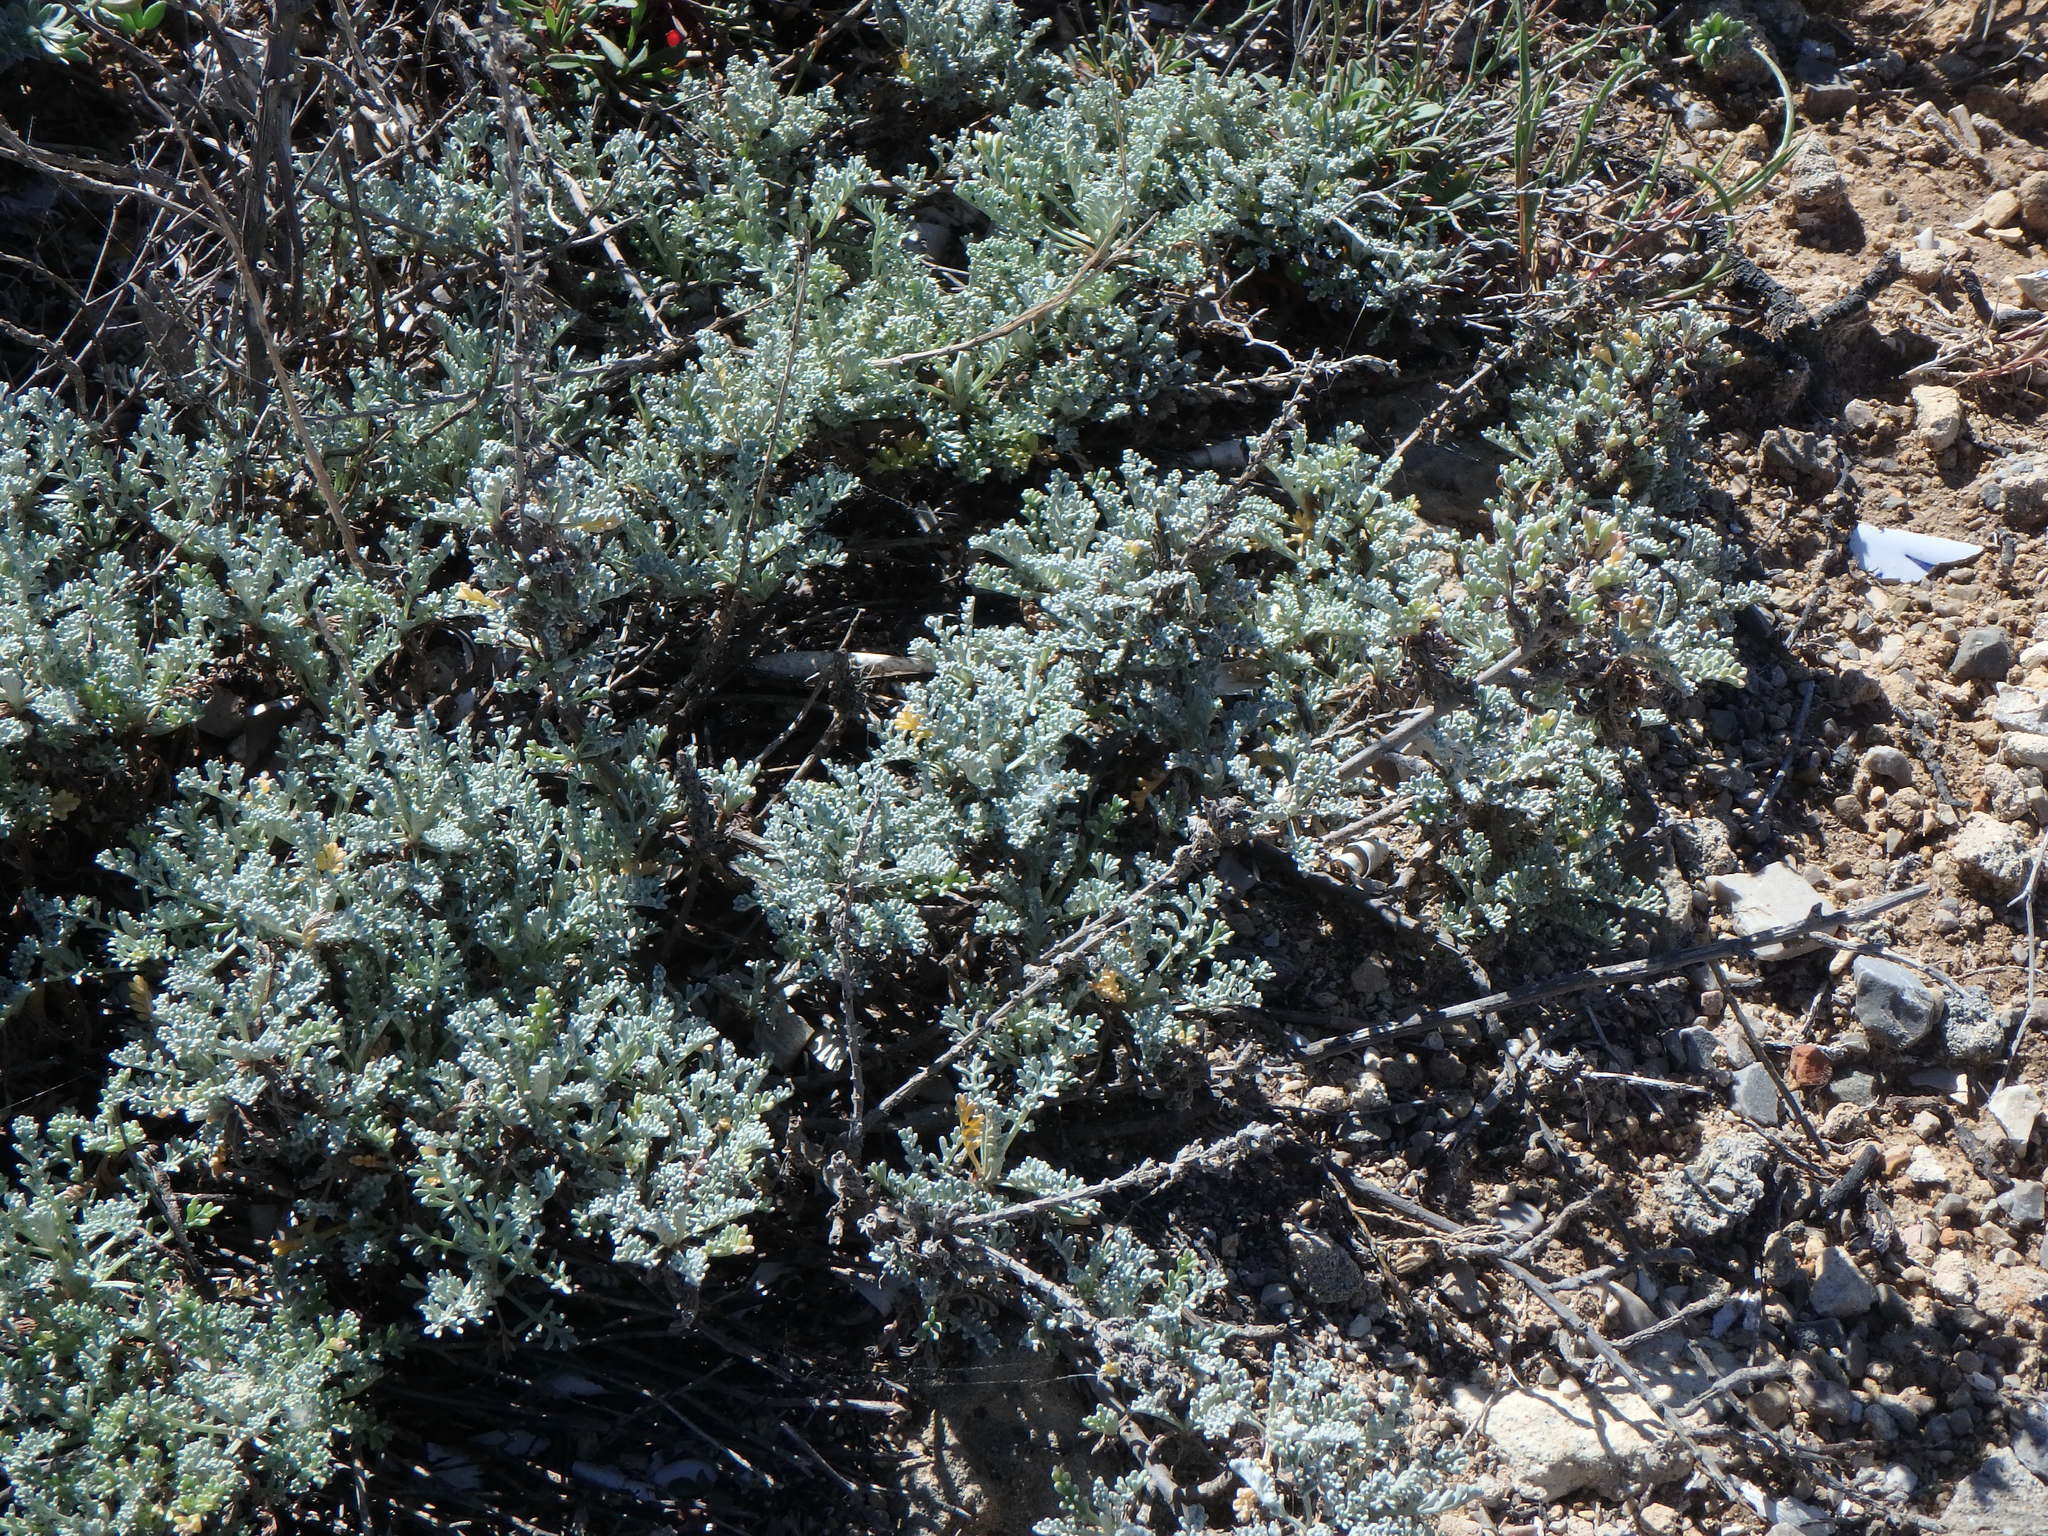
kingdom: Plantae
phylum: Tracheophyta
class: Magnoliopsida
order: Asterales
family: Asteraceae
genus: Artemisia
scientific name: Artemisia caerulescens
